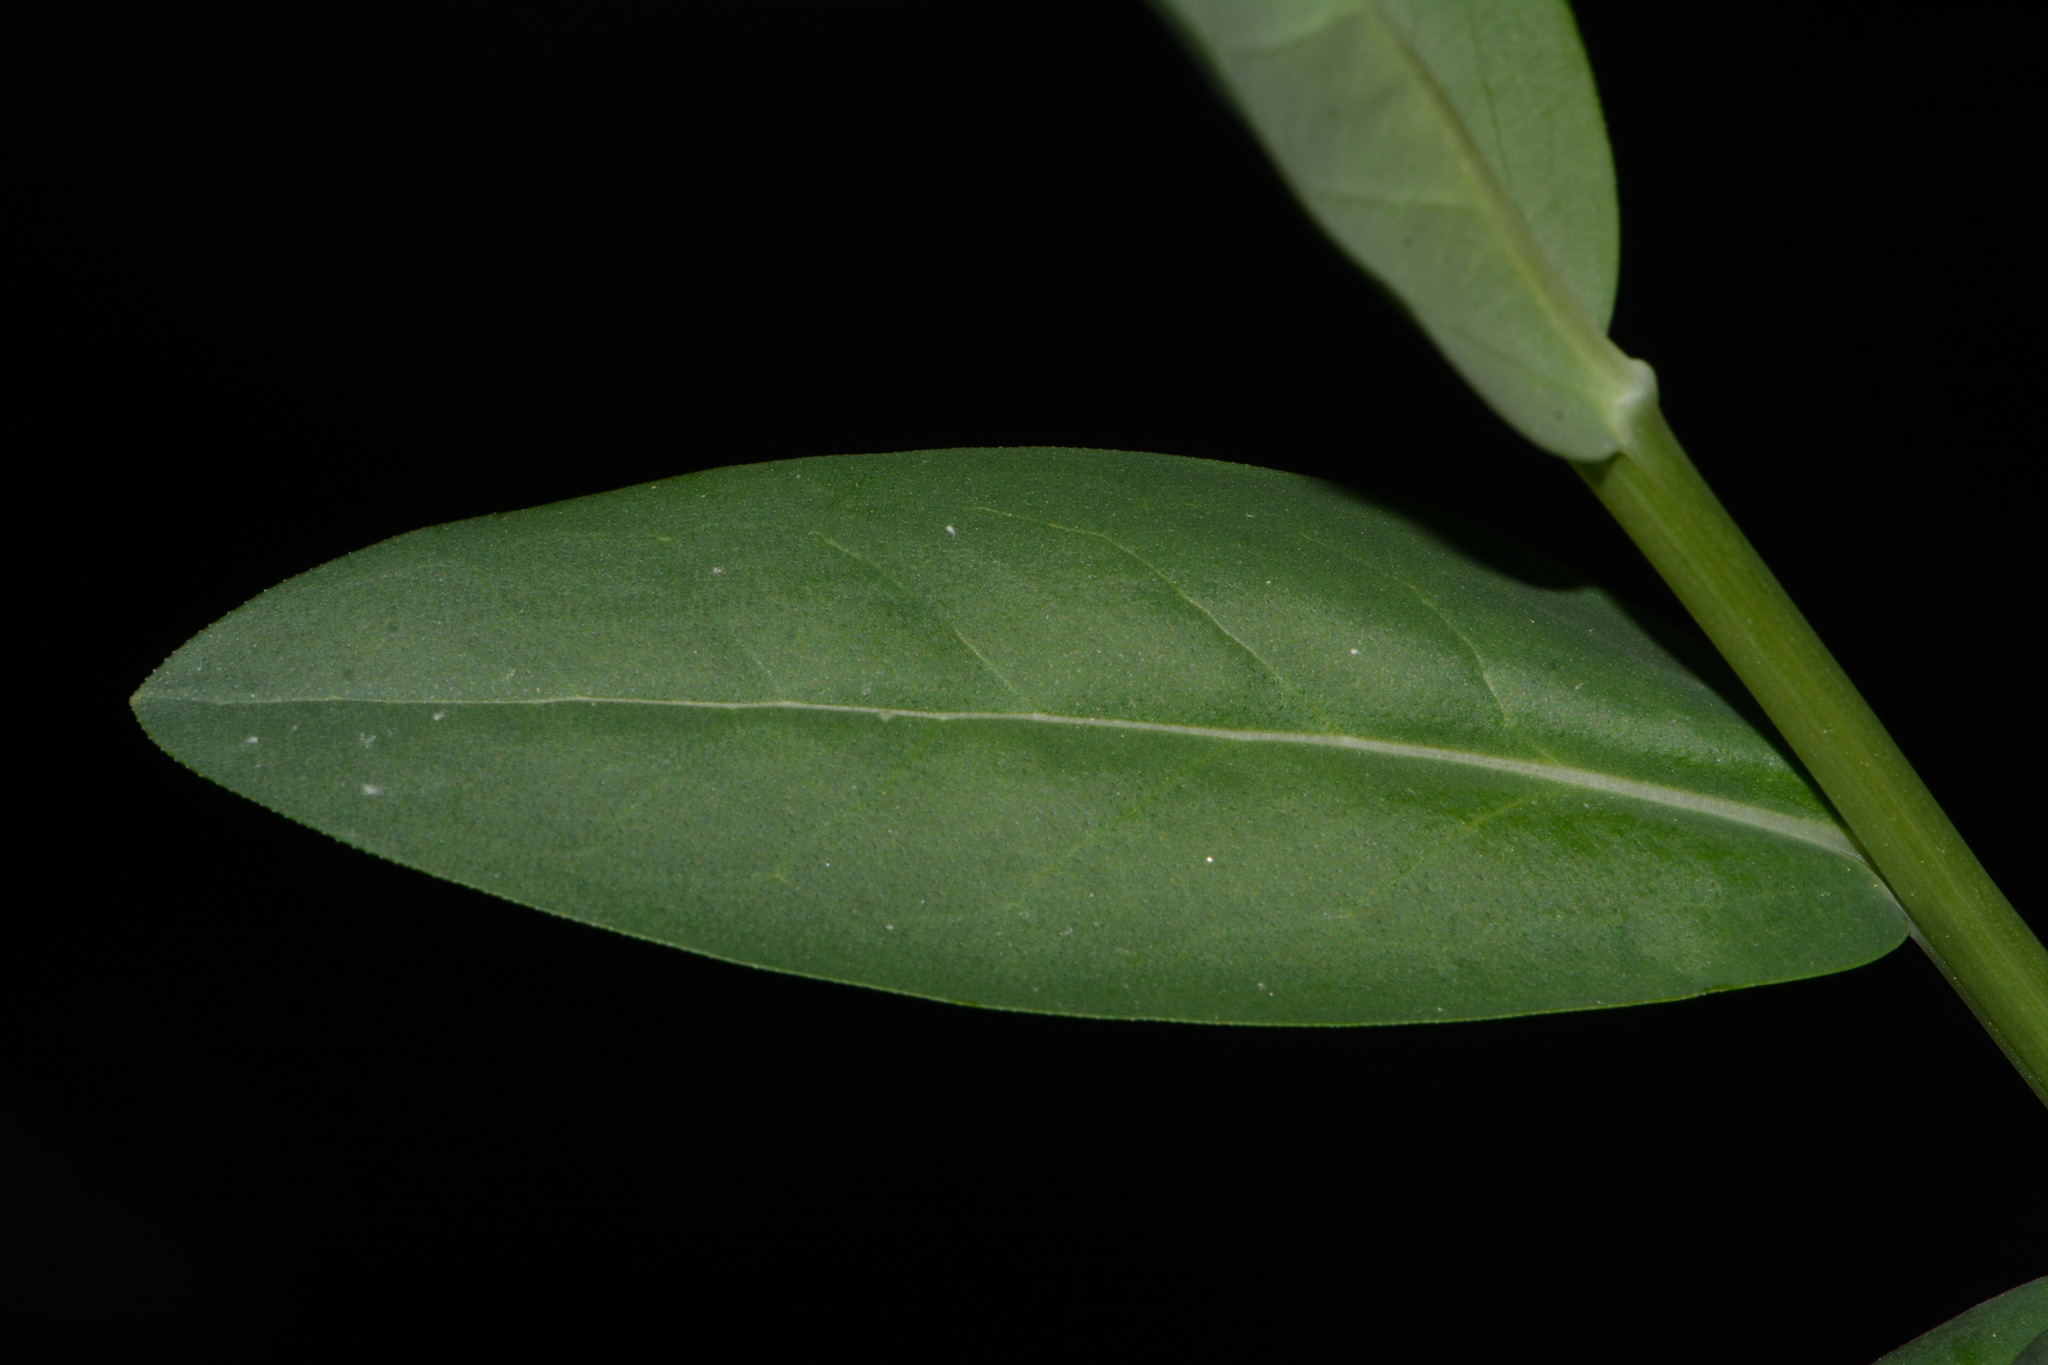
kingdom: Plantae
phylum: Tracheophyta
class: Magnoliopsida
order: Boraginales
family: Boraginaceae
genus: Mertensia
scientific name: Mertensia arizonica
